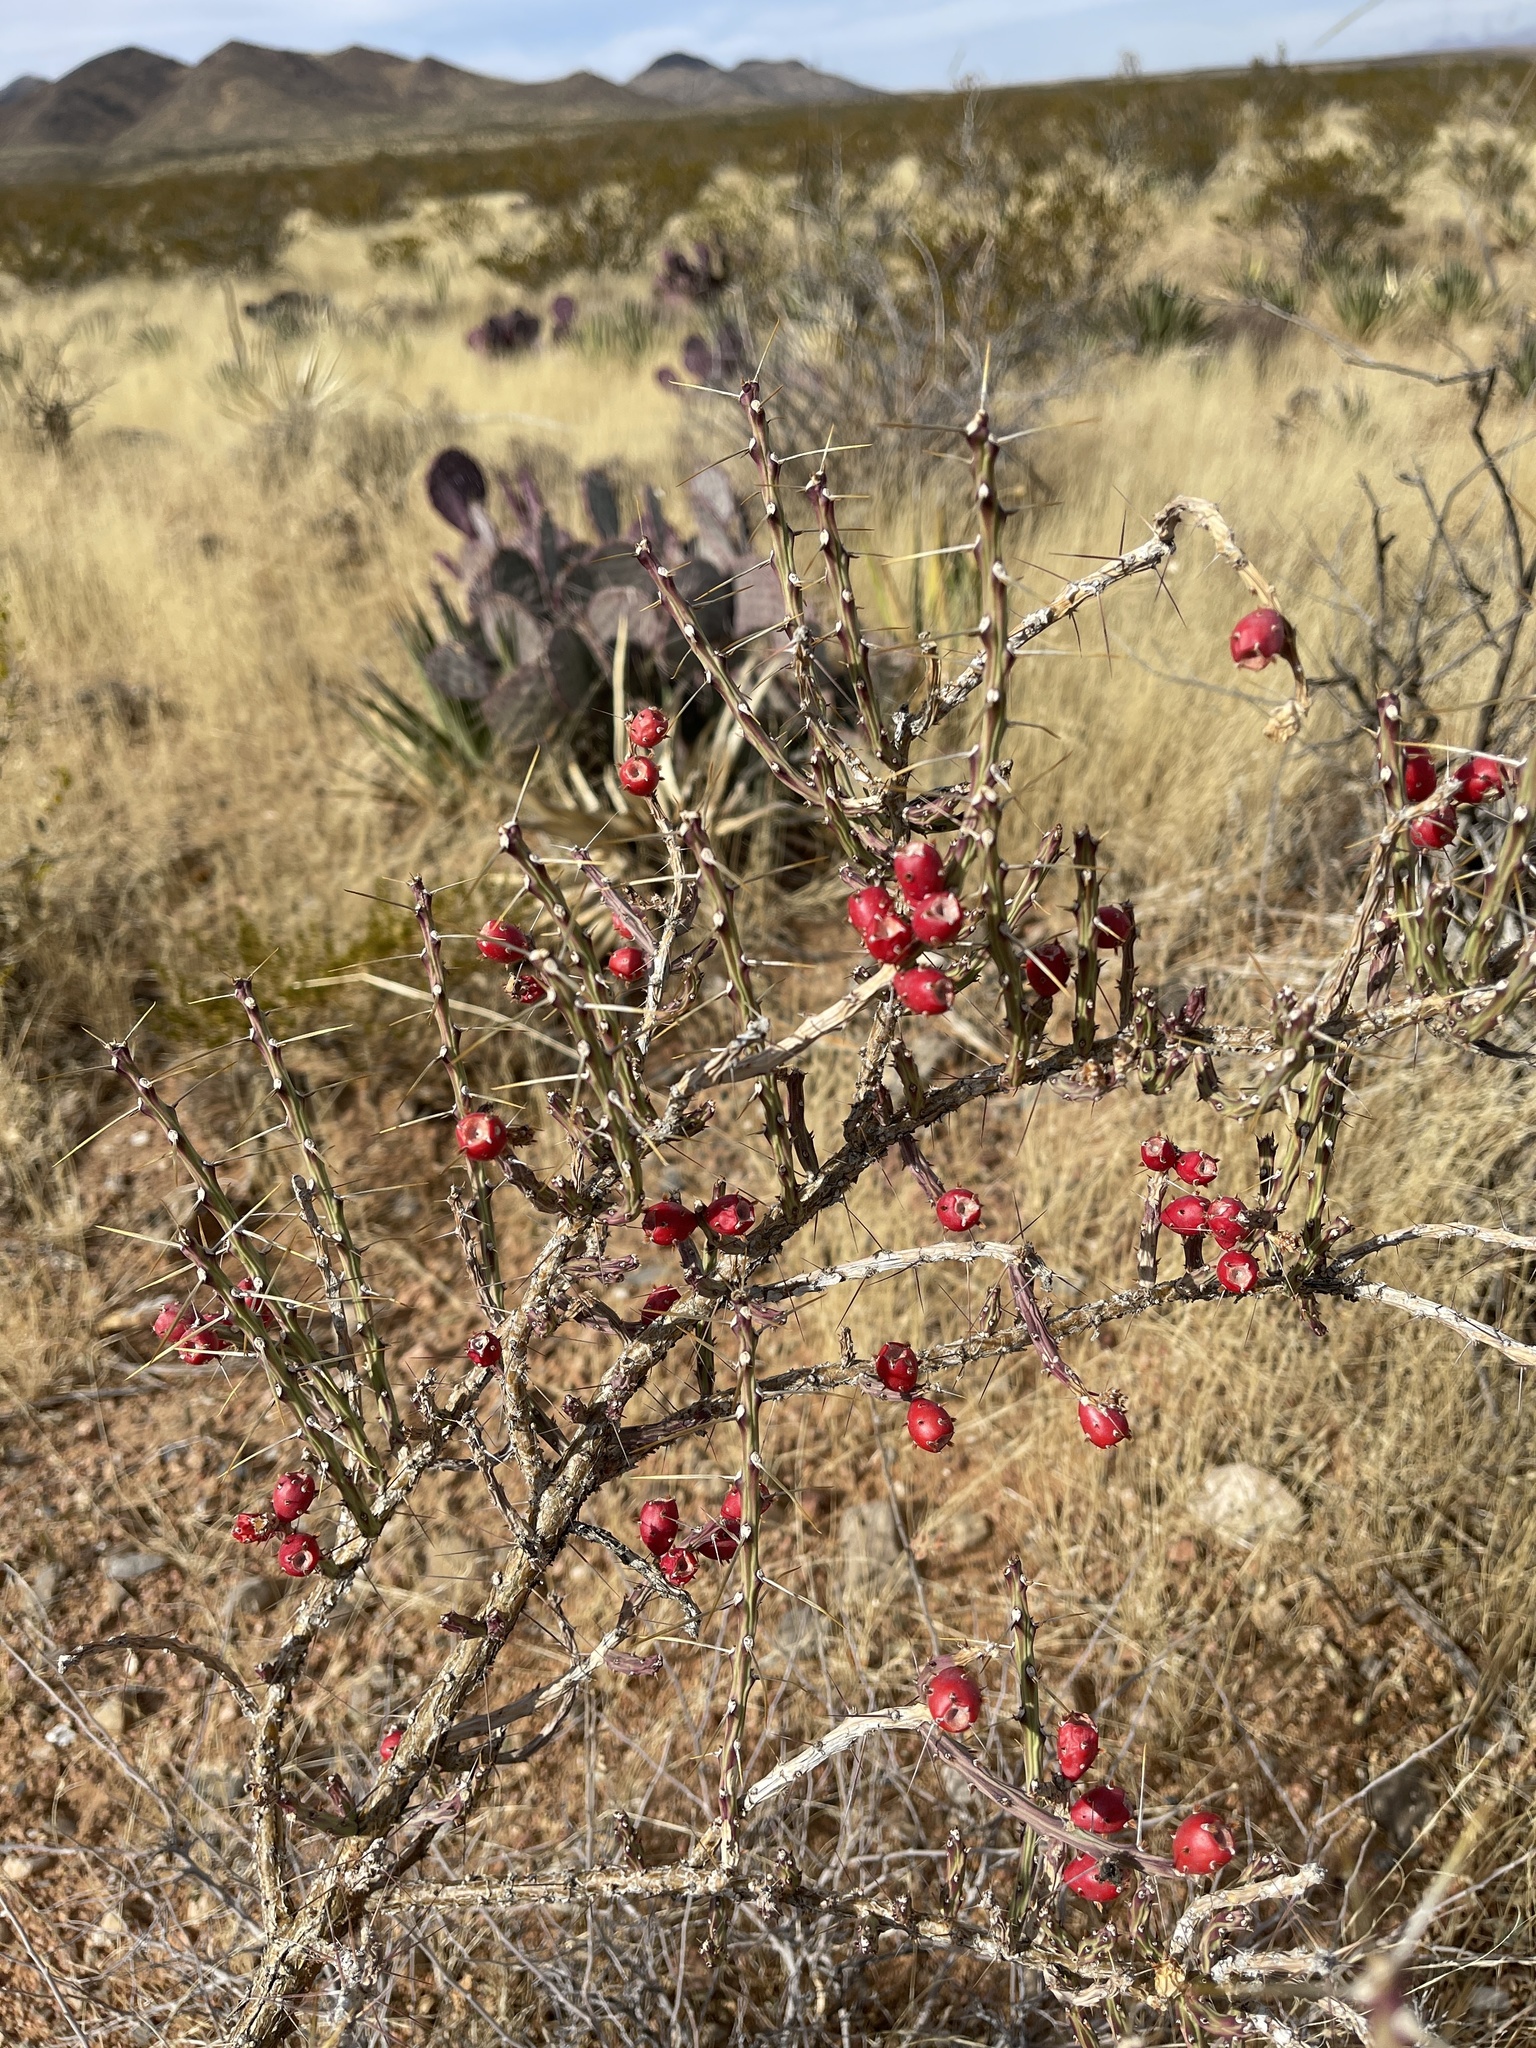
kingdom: Plantae
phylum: Tracheophyta
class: Magnoliopsida
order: Caryophyllales
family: Cactaceae
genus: Cylindropuntia
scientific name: Cylindropuntia leptocaulis
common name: Christmas cactus
